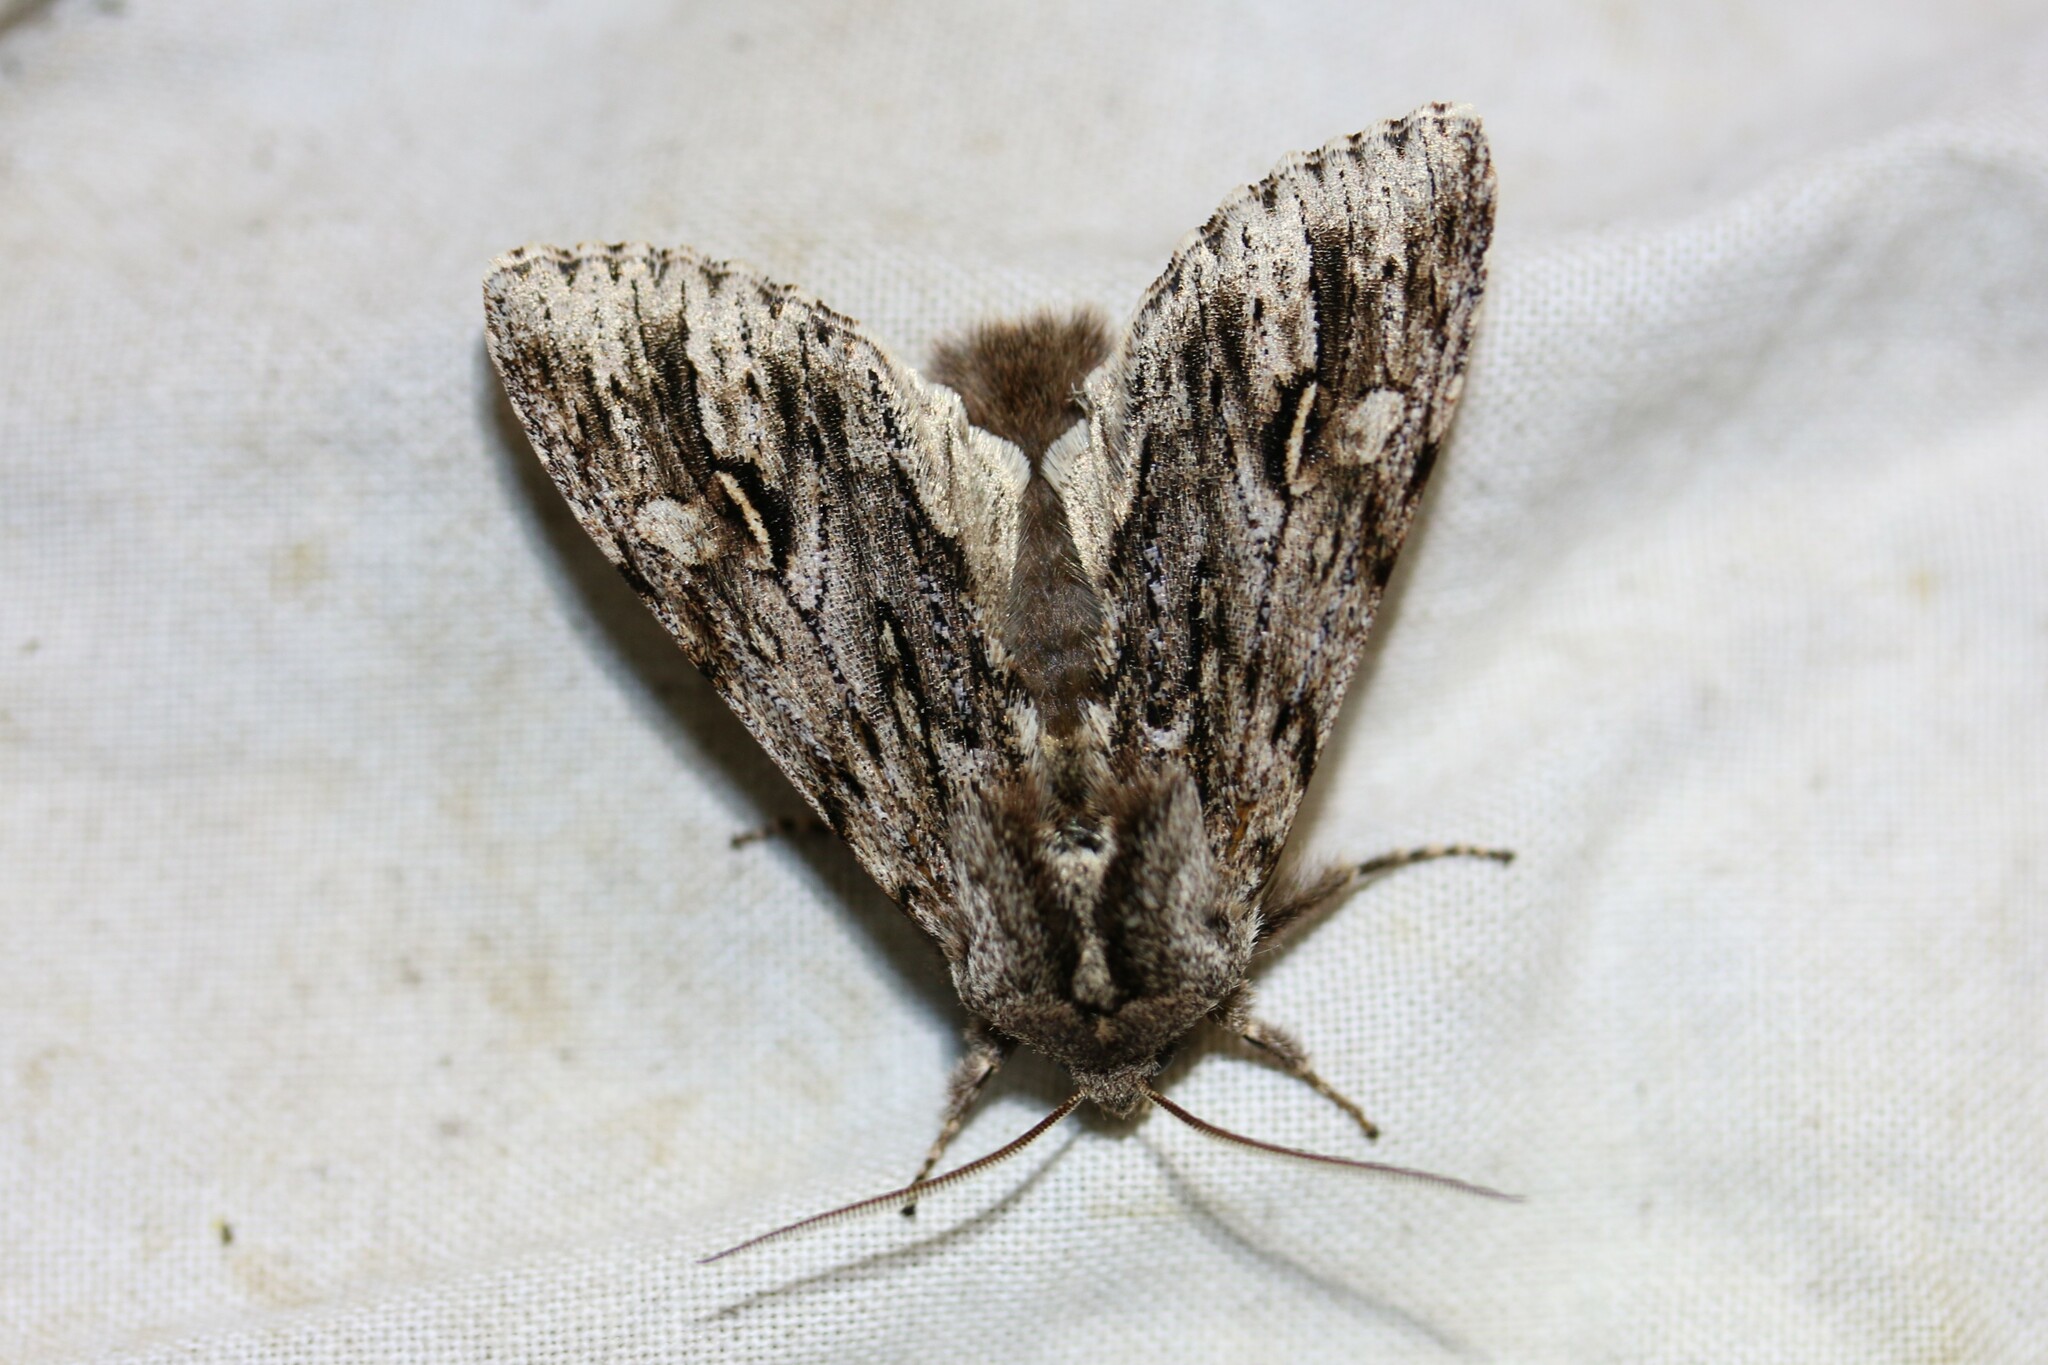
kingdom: Animalia
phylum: Arthropoda
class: Insecta
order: Lepidoptera
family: Noctuidae
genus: Brachionycha
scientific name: Brachionycha nubeculosa
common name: Rannoch sprawler
